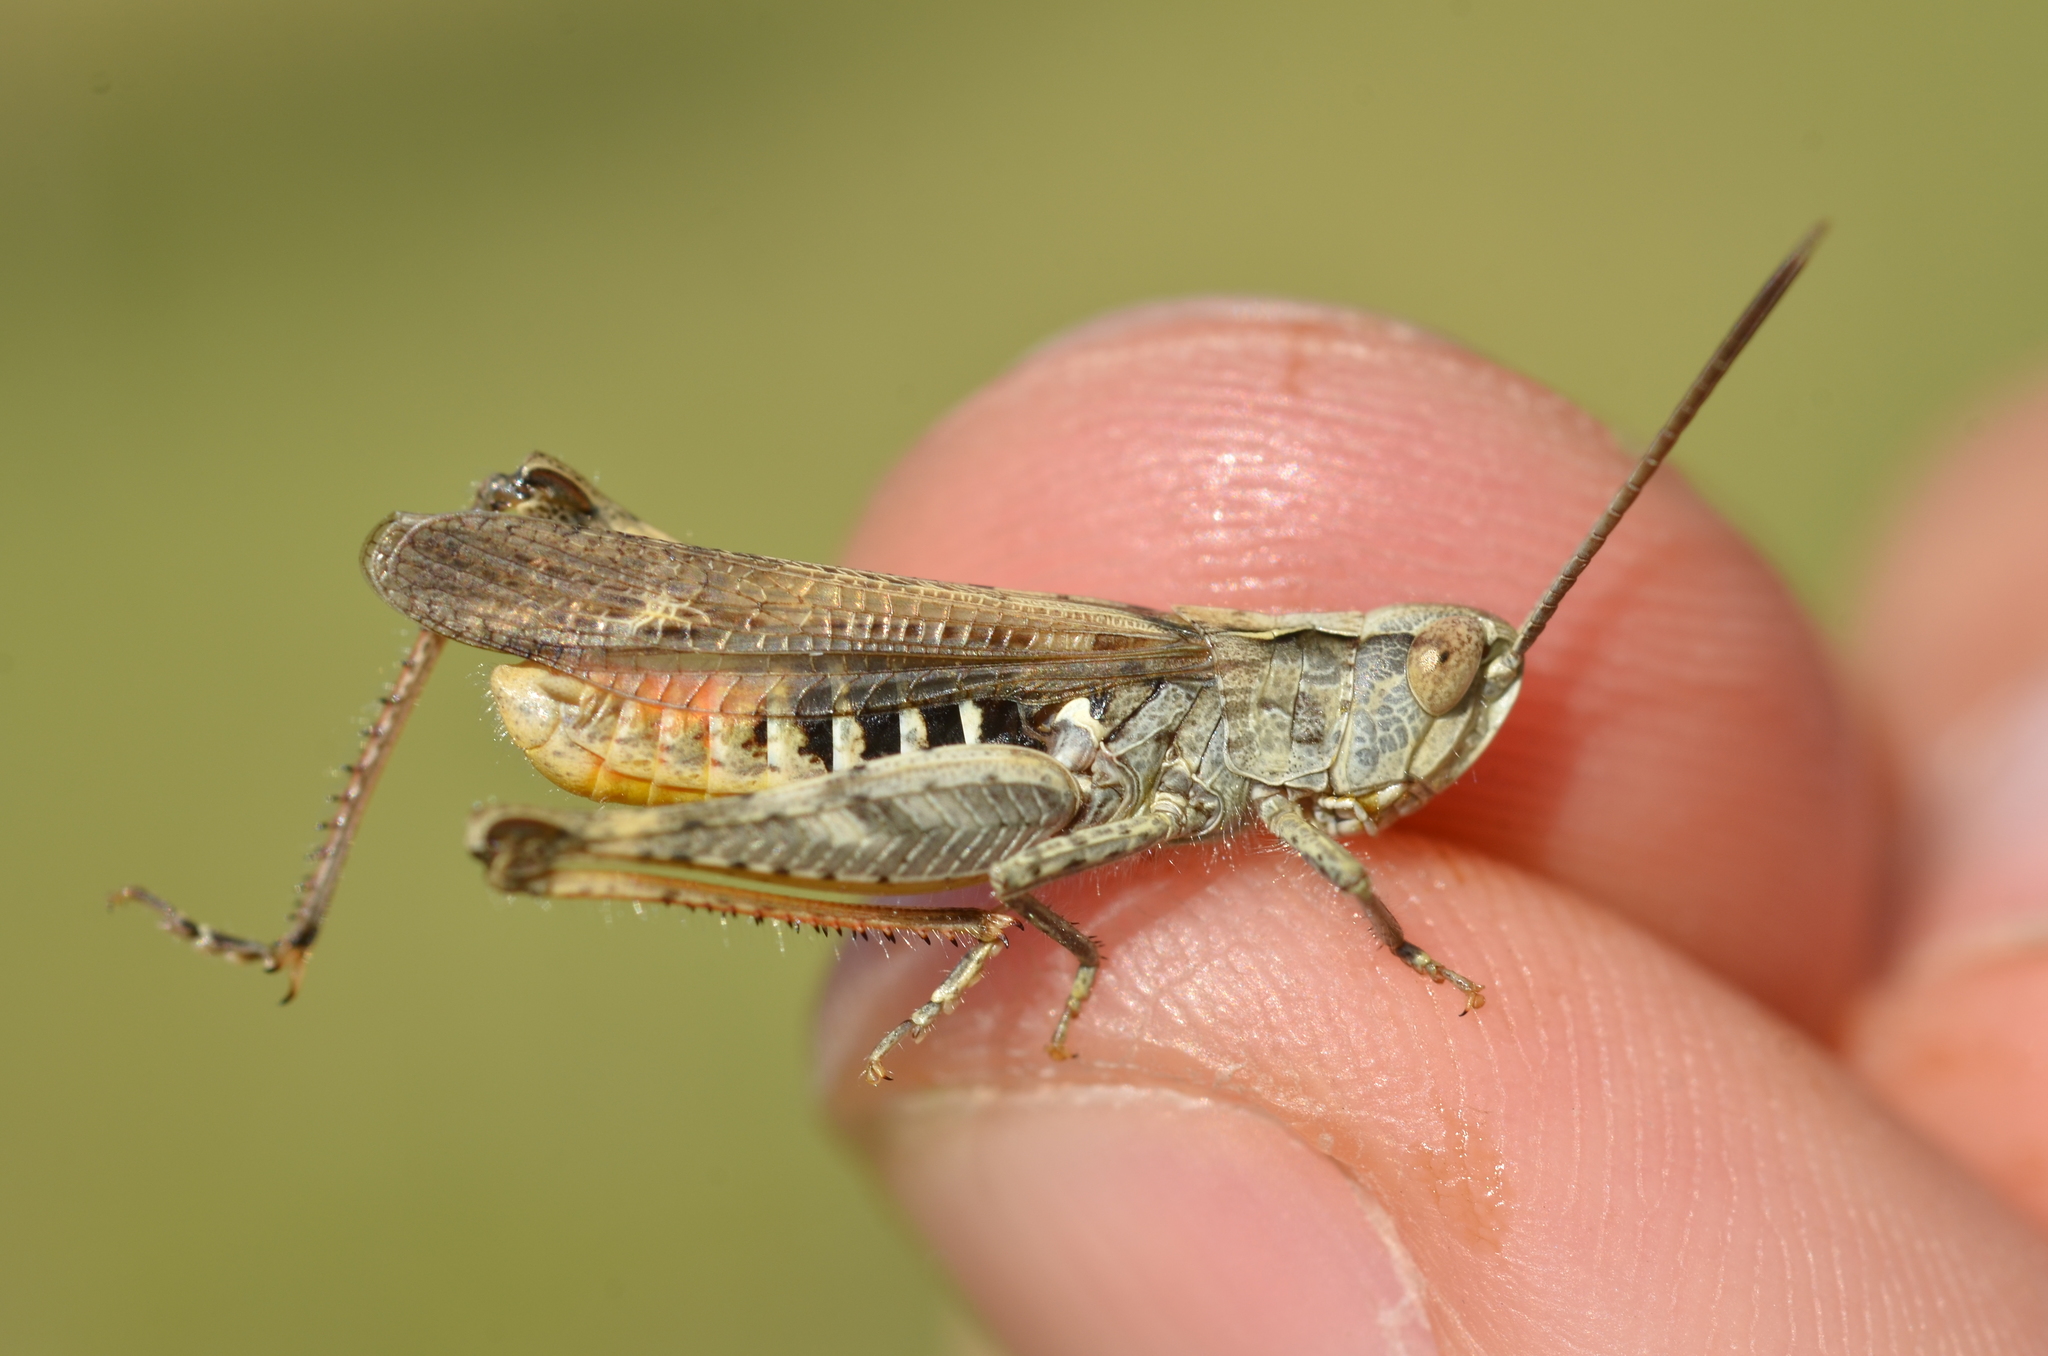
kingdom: Animalia
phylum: Arthropoda
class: Insecta
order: Orthoptera
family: Acrididae
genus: Chorthippus
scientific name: Chorthippus mollis
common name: Lesser field grasshopper
